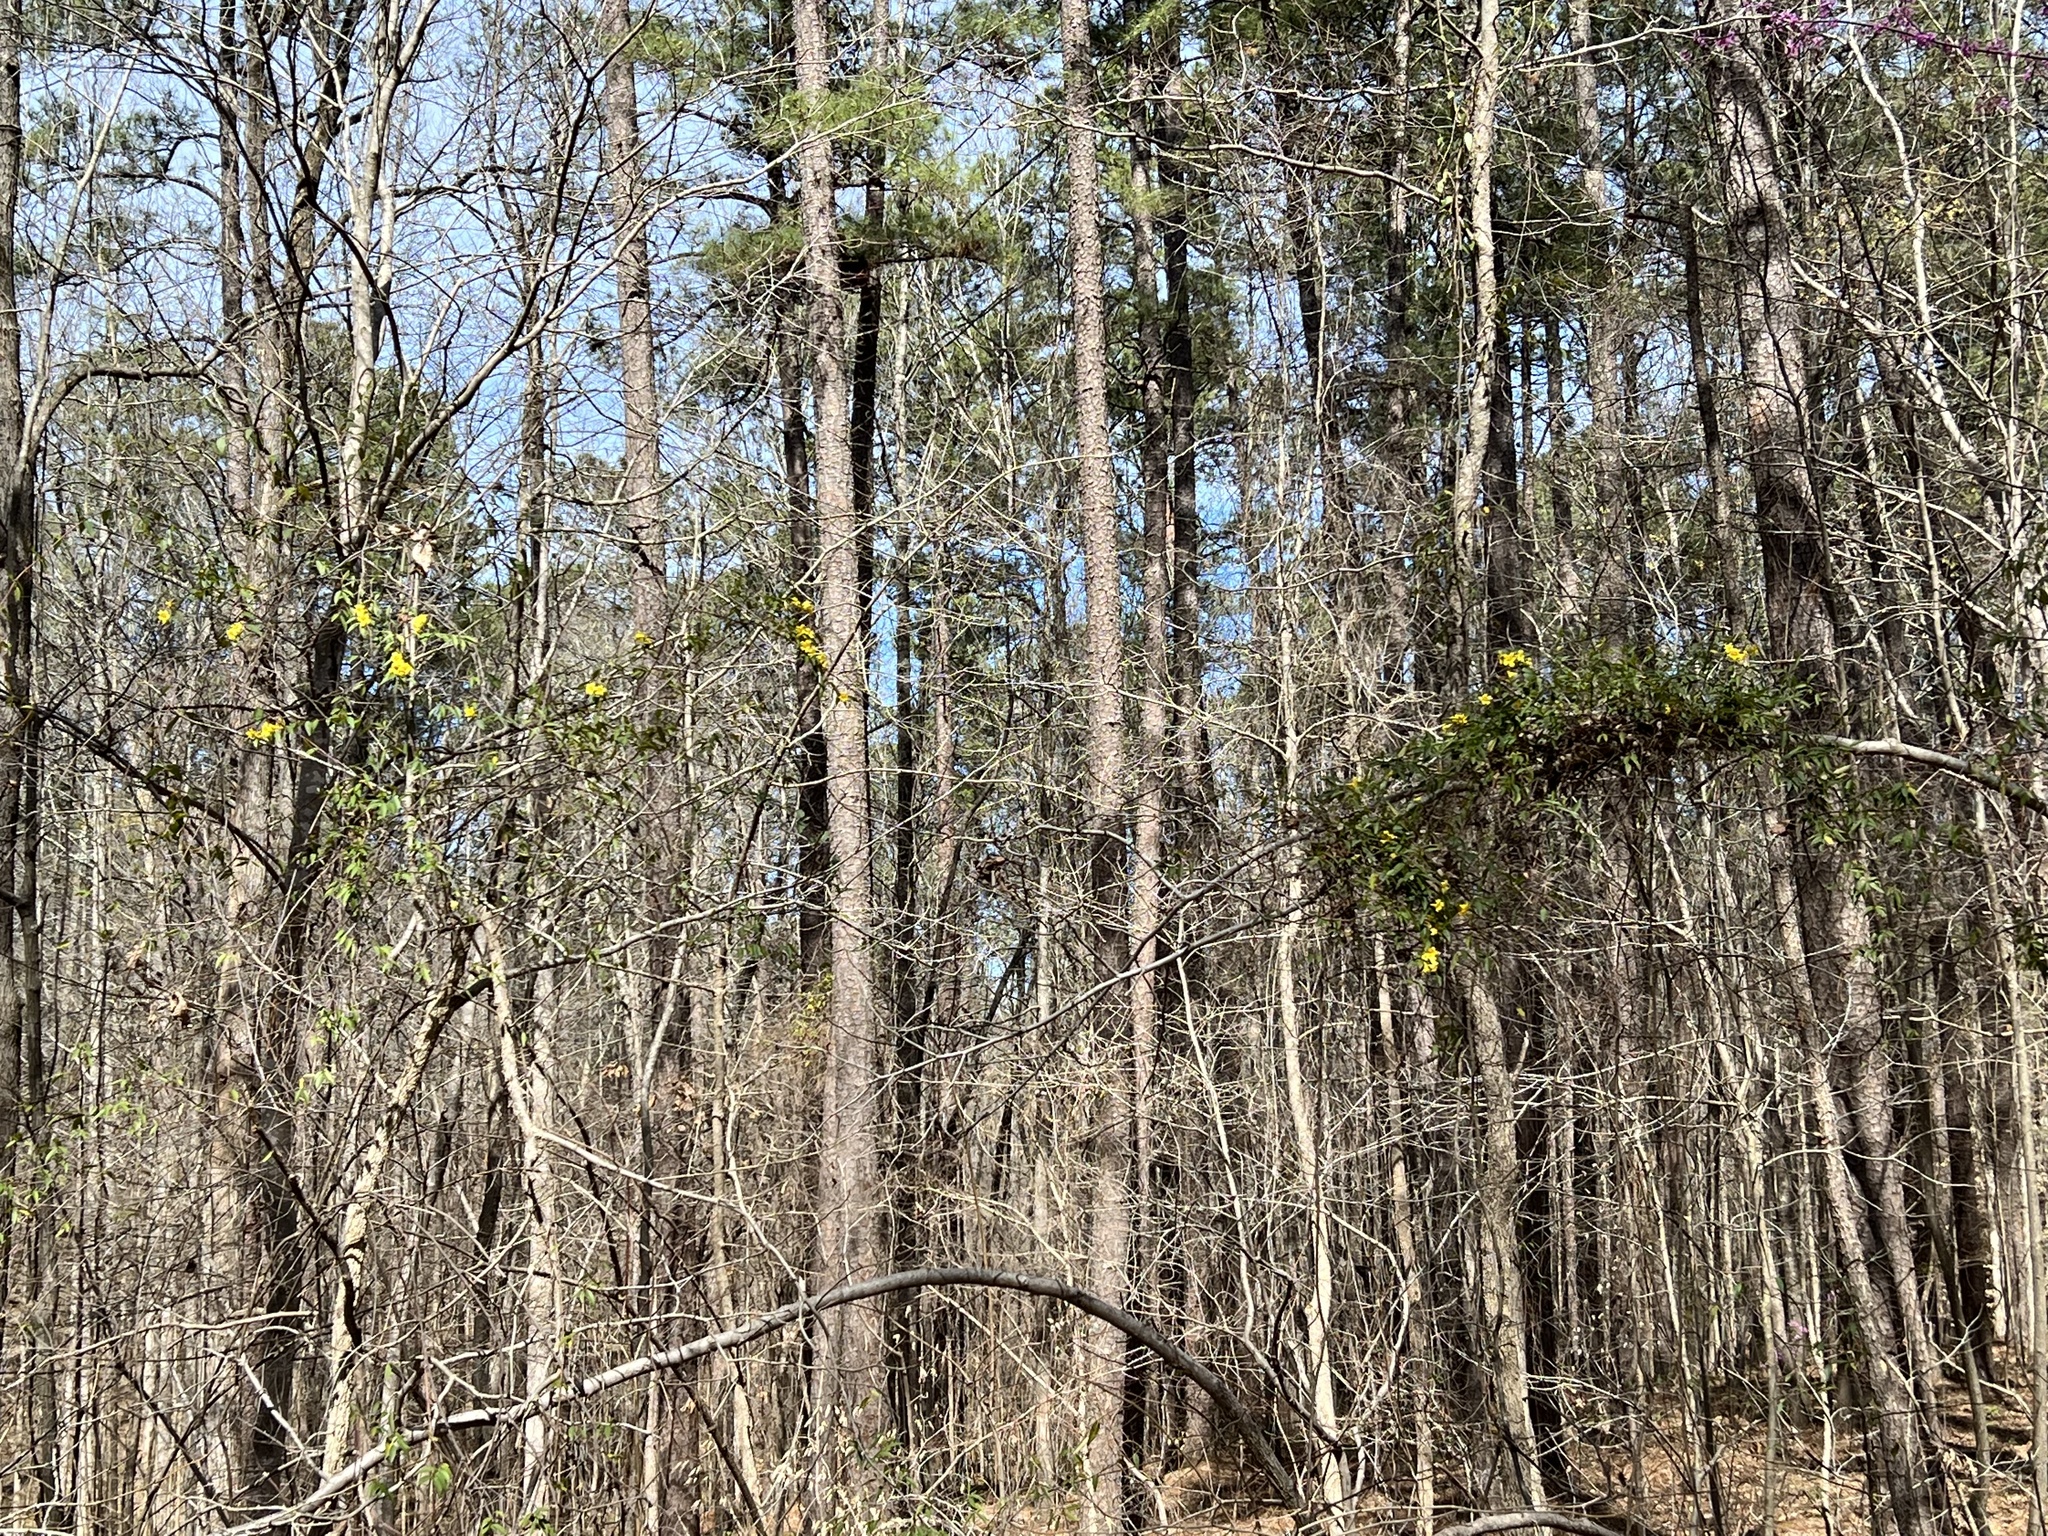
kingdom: Plantae
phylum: Tracheophyta
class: Magnoliopsida
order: Gentianales
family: Gelsemiaceae
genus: Gelsemium
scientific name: Gelsemium sempervirens
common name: Carolina-jasmine
